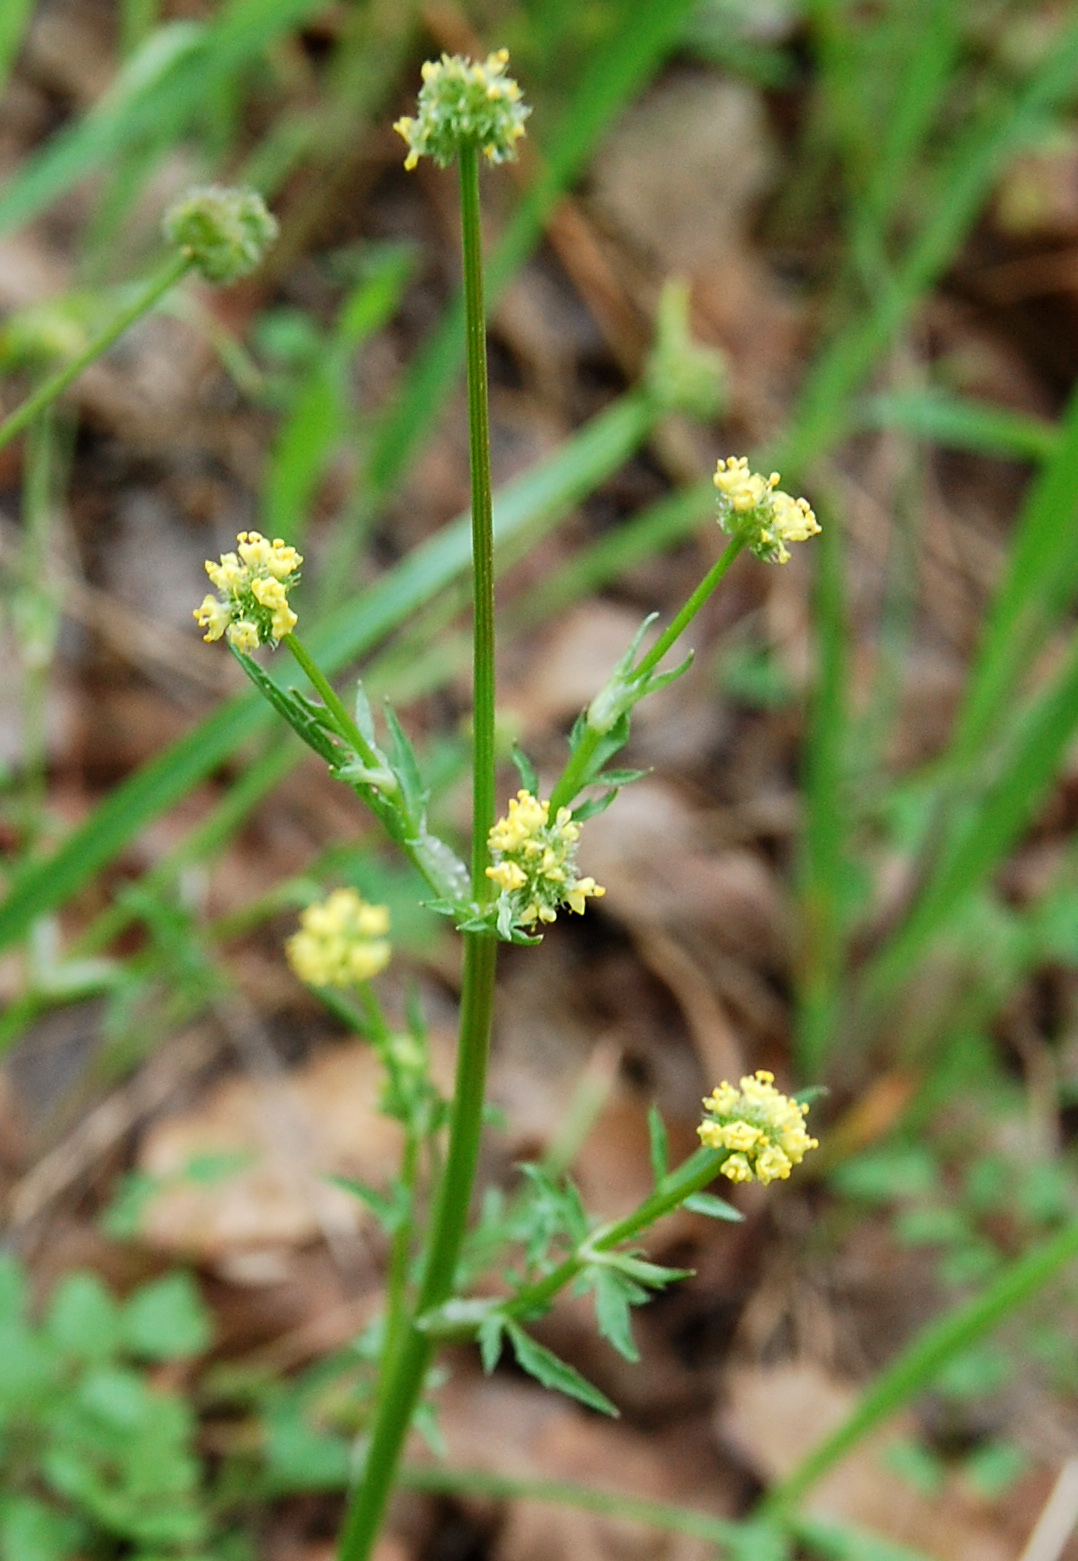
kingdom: Plantae
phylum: Tracheophyta
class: Magnoliopsida
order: Apiales
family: Apiaceae
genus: Sanicula
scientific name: Sanicula bipinnata
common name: Poison sanicle
